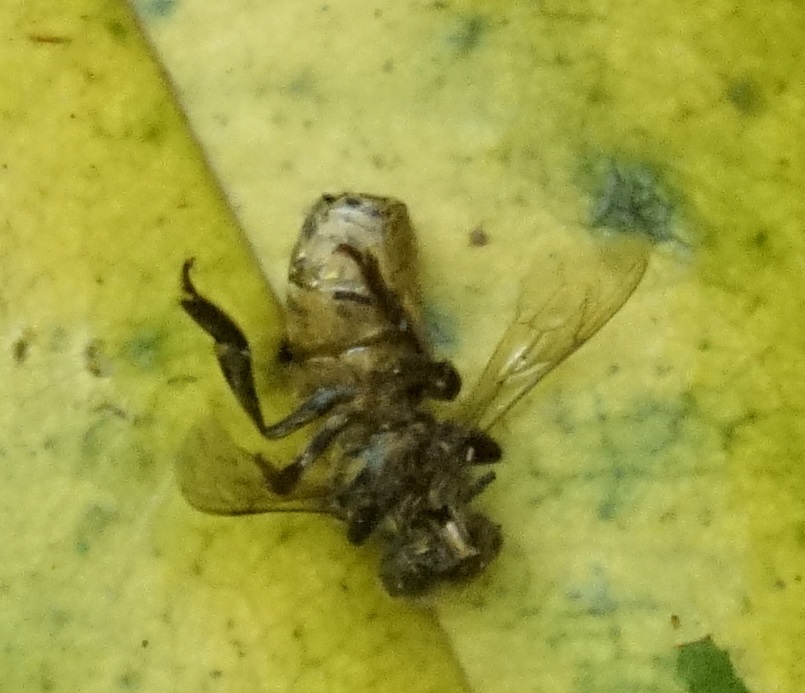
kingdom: Animalia
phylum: Arthropoda
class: Insecta
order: Hymenoptera
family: Apidae
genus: Apis
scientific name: Apis mellifera
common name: Honey bee
